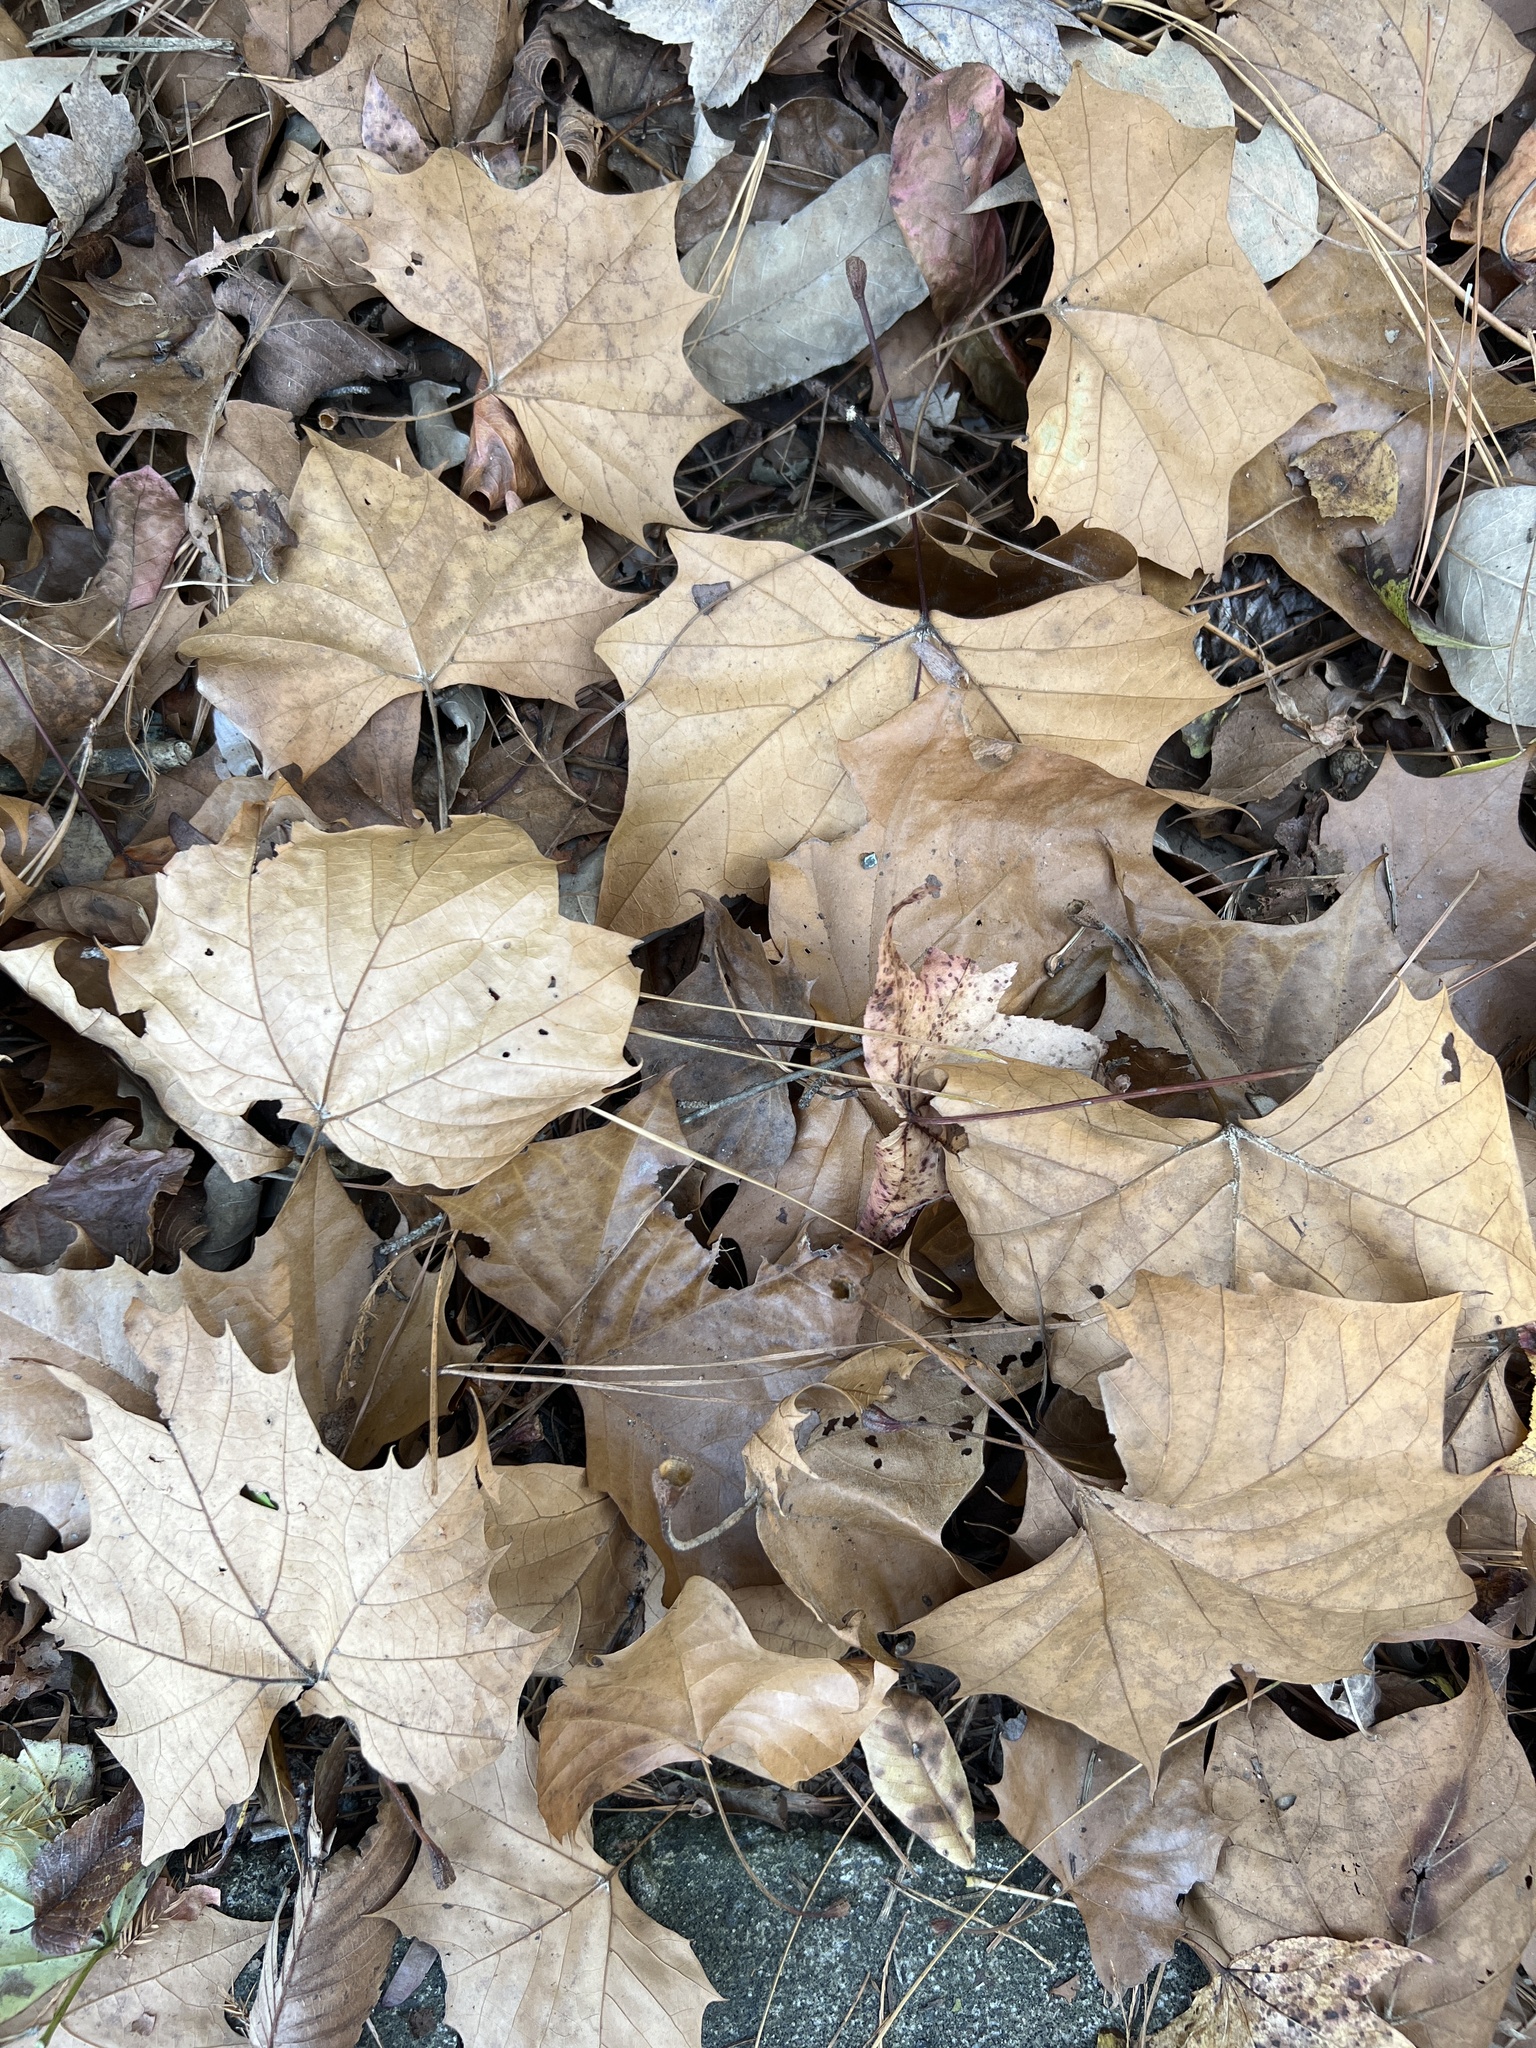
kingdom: Plantae
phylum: Tracheophyta
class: Magnoliopsida
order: Proteales
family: Platanaceae
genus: Platanus
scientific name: Platanus occidentalis
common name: American sycamore
